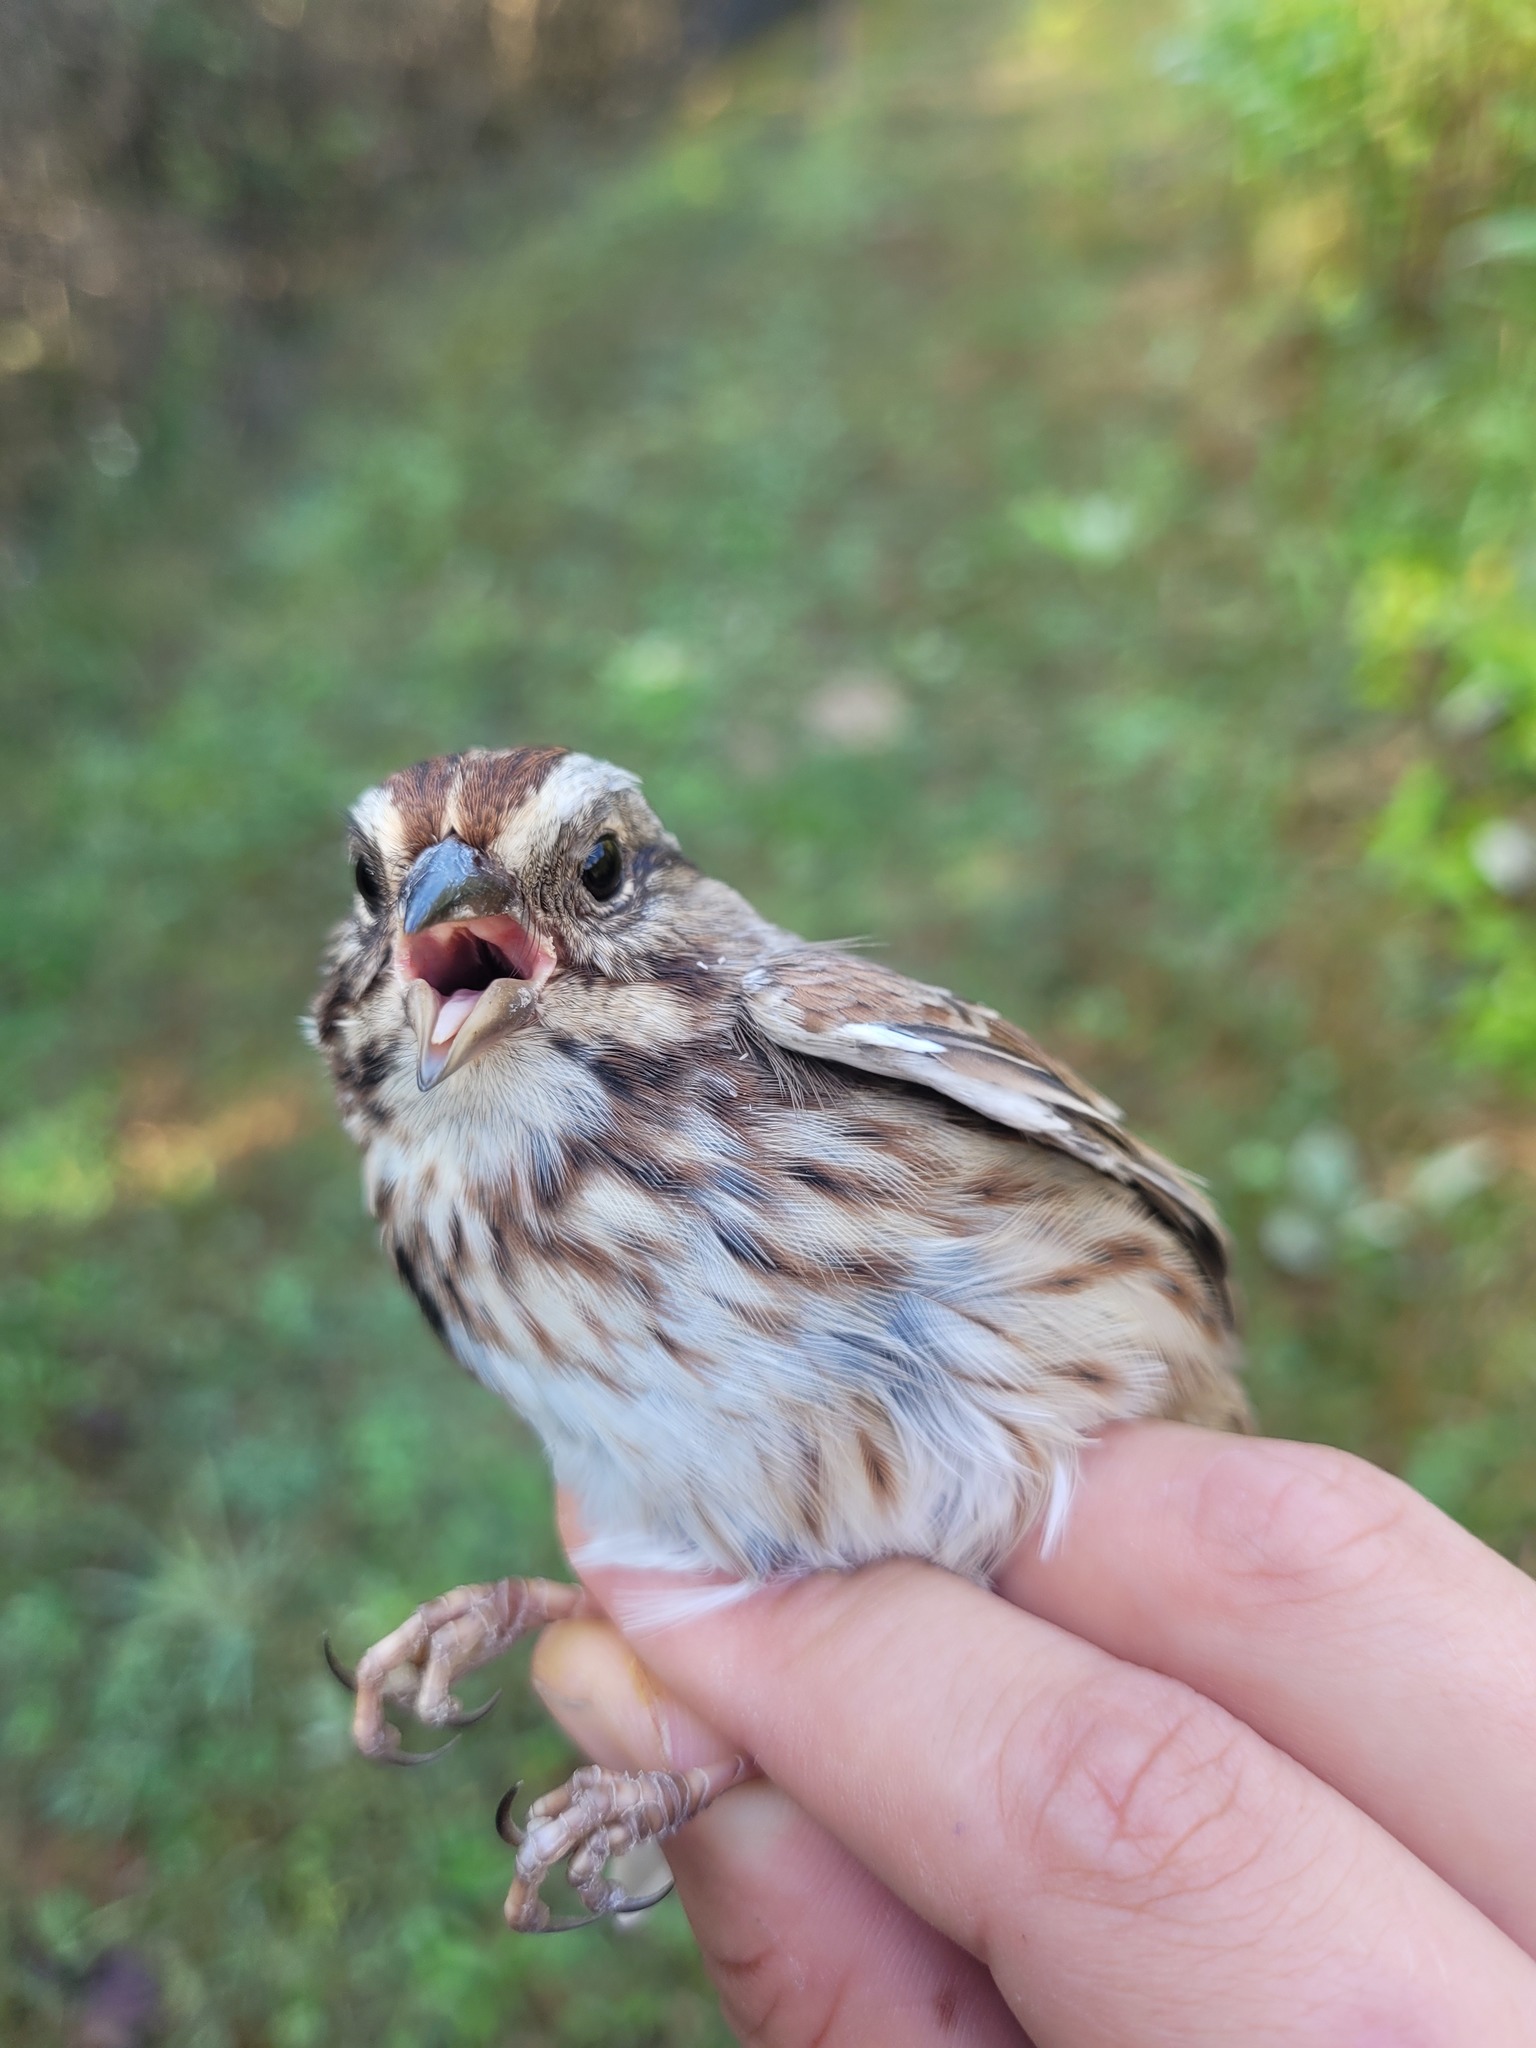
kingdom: Animalia
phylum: Chordata
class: Aves
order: Passeriformes
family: Passerellidae
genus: Melospiza
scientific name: Melospiza melodia
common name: Song sparrow
